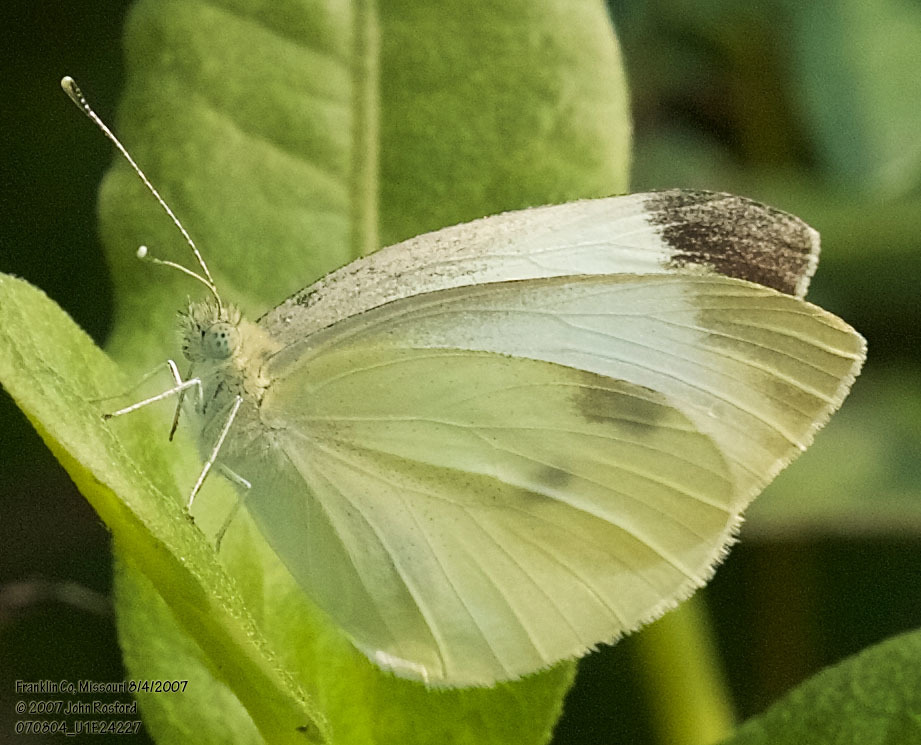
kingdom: Animalia
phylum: Arthropoda
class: Insecta
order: Lepidoptera
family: Pieridae
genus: Pieris
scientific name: Pieris rapae
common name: Small white
